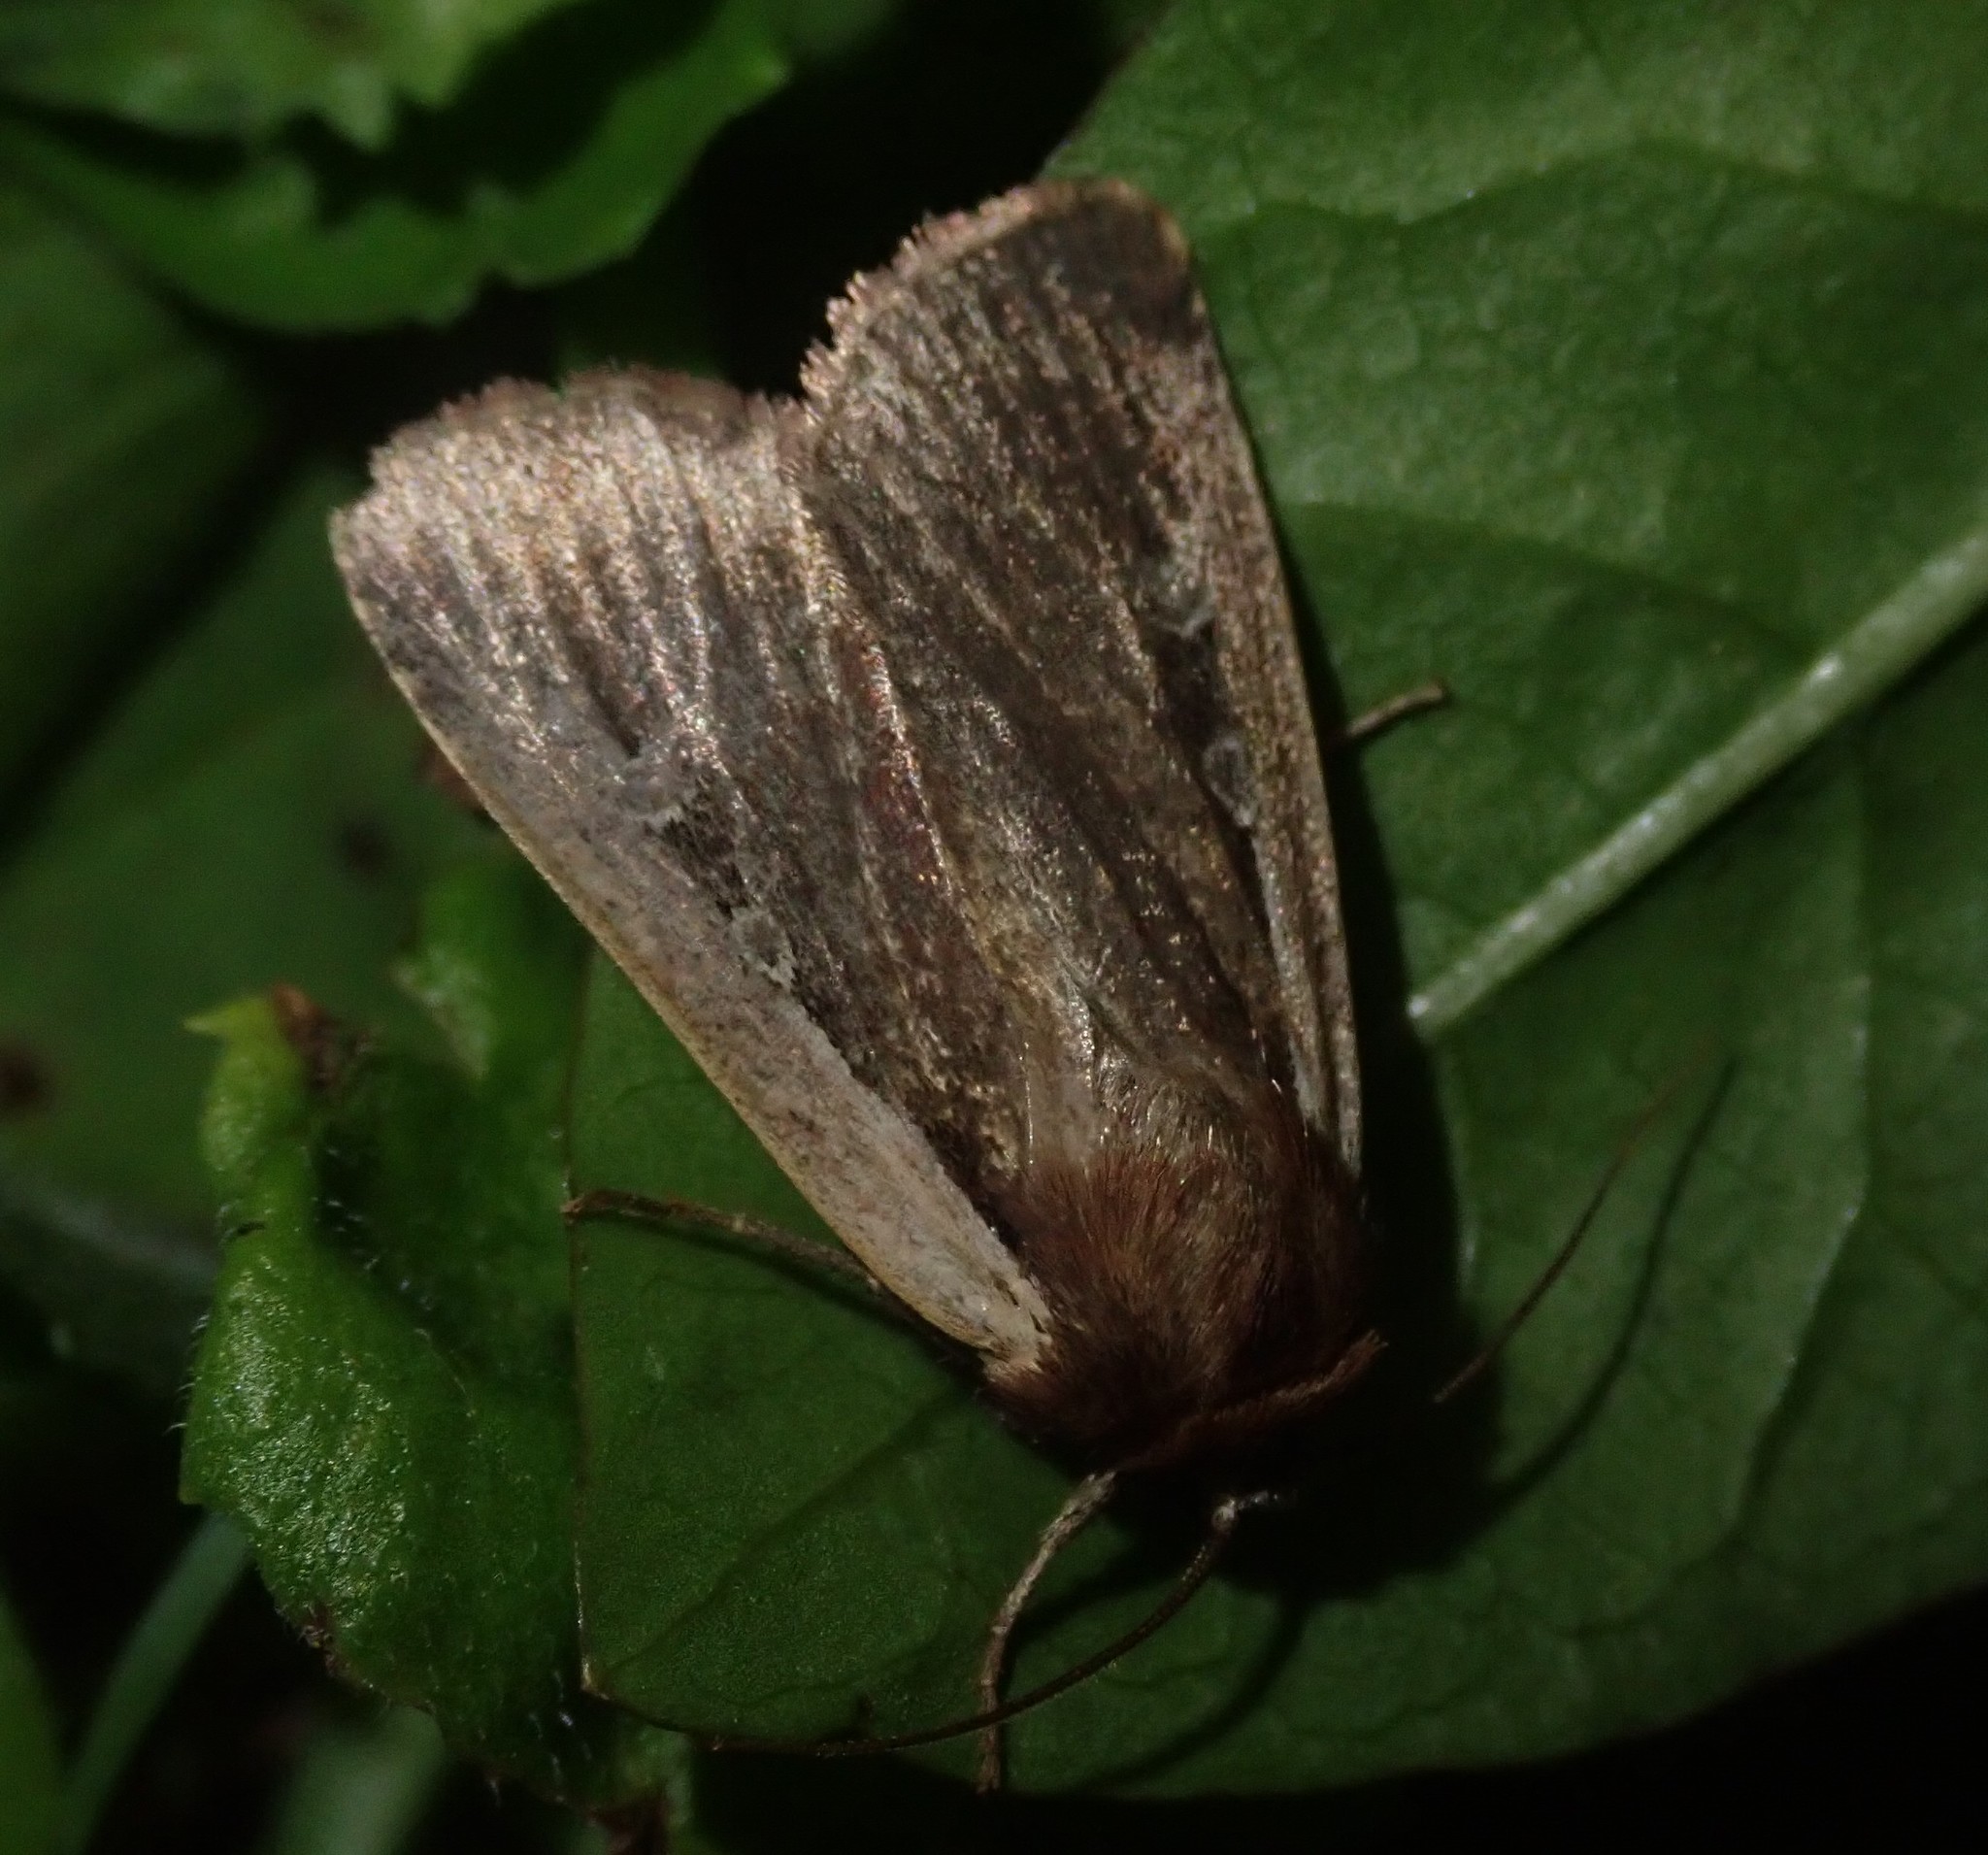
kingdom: Animalia
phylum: Arthropoda
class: Insecta
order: Lepidoptera
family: Noctuidae
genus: Ochropleura
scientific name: Ochropleura plecta
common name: Flame shoulder
